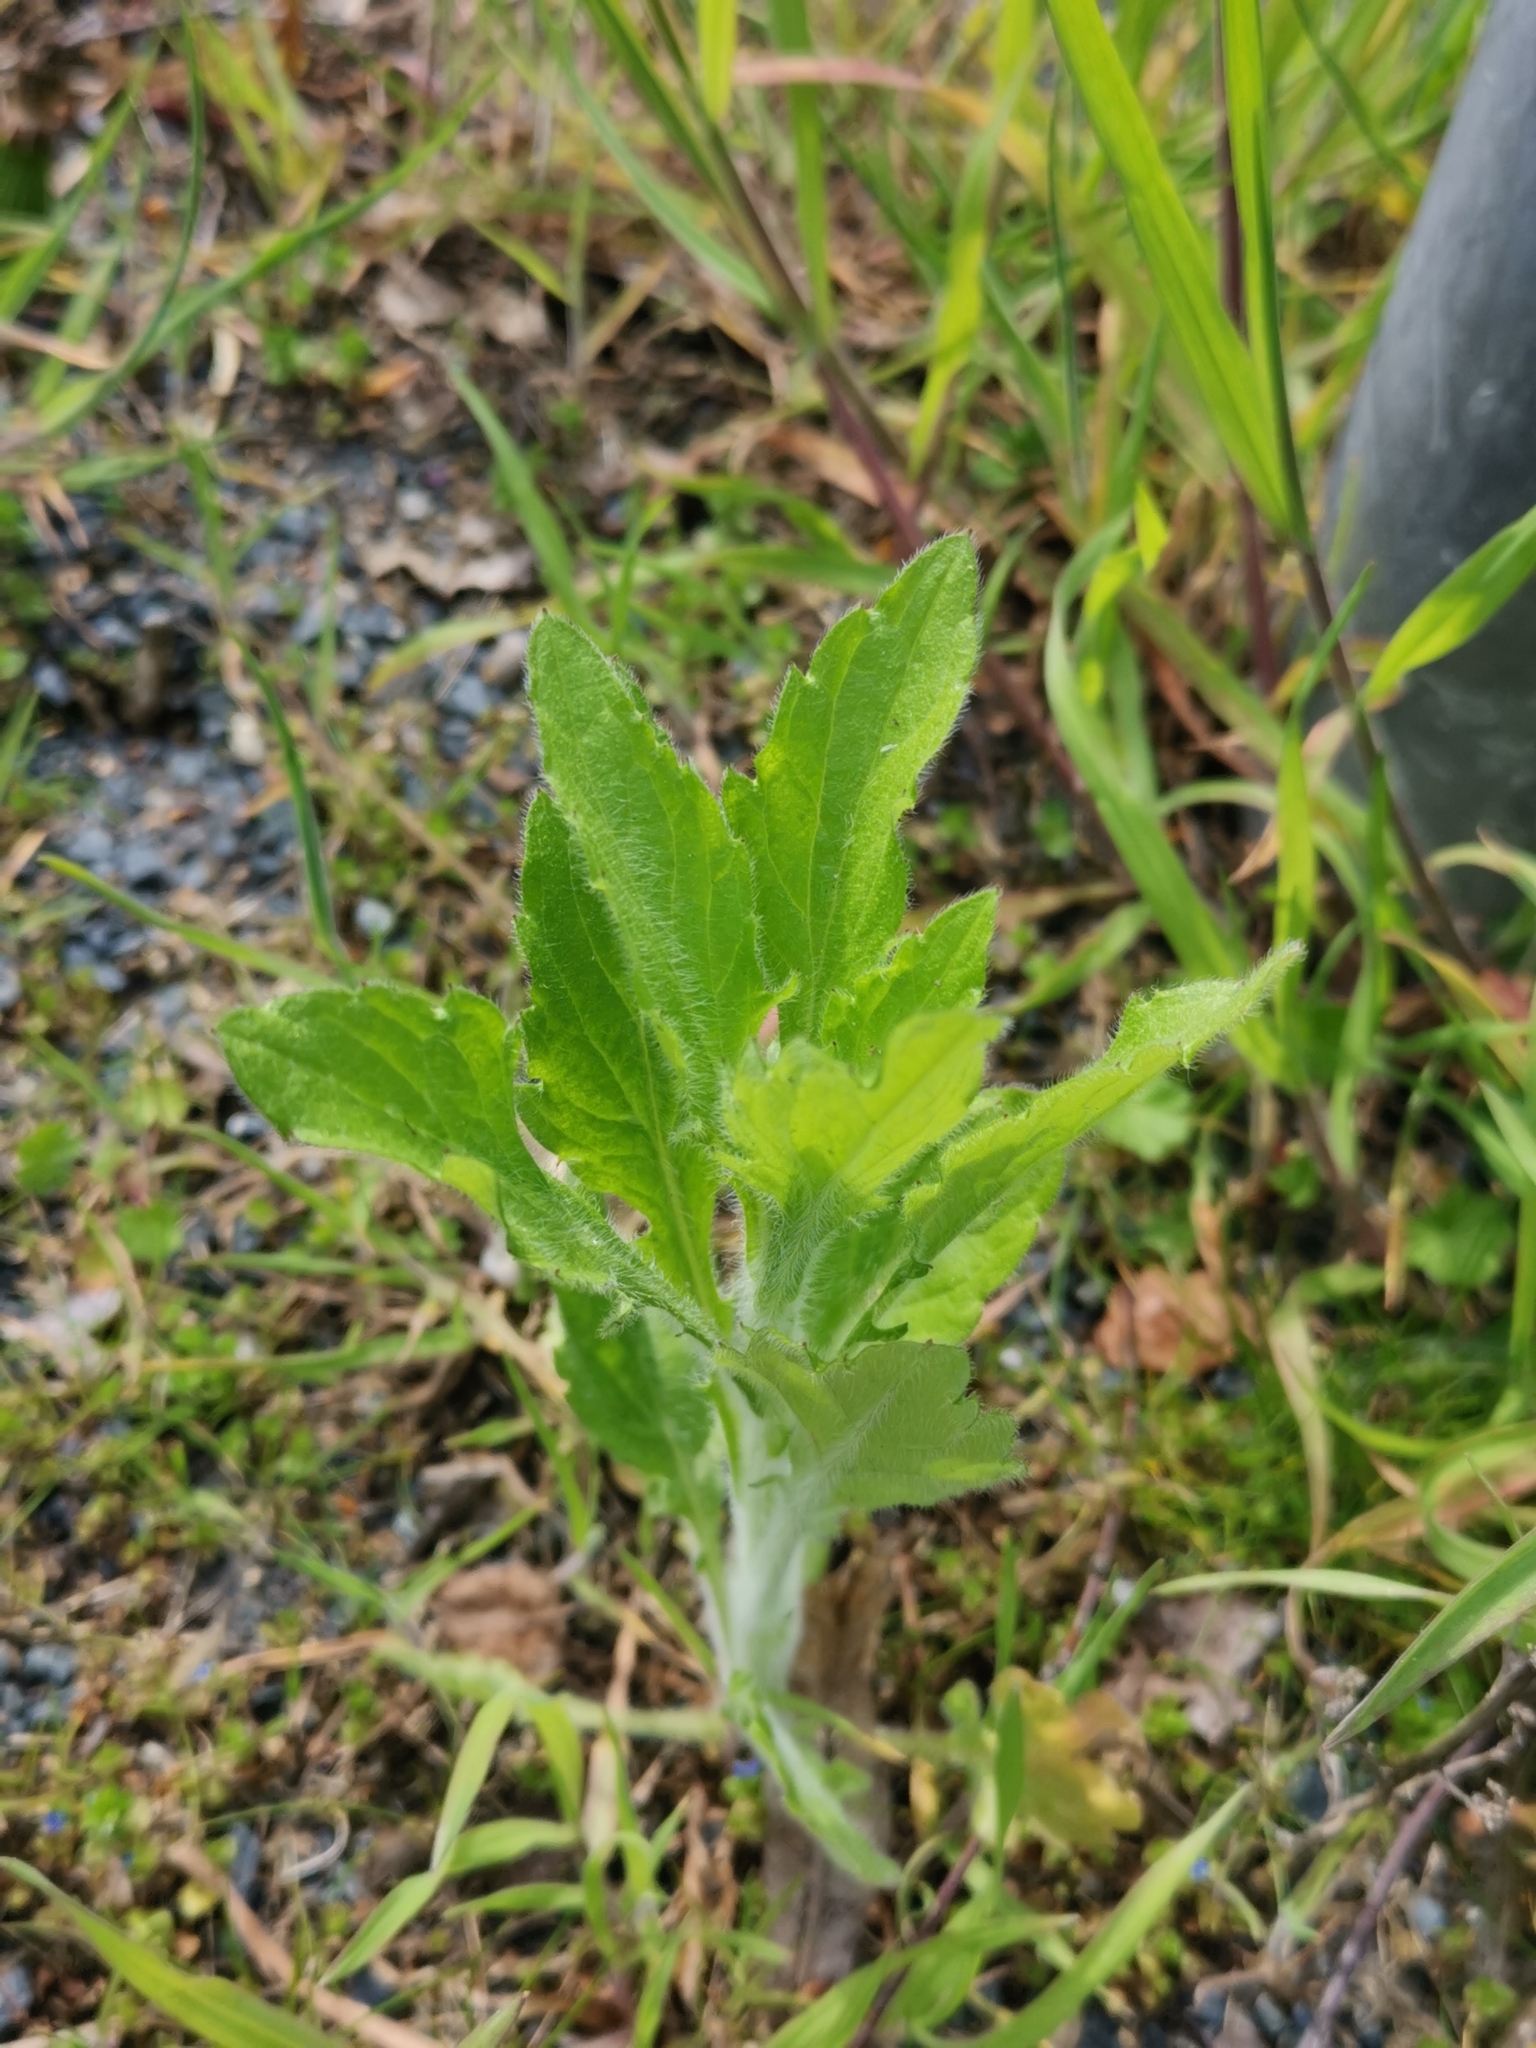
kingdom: Plantae
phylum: Tracheophyta
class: Magnoliopsida
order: Asterales
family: Asteraceae
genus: Erigeron
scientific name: Erigeron annuus
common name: Tall fleabane
